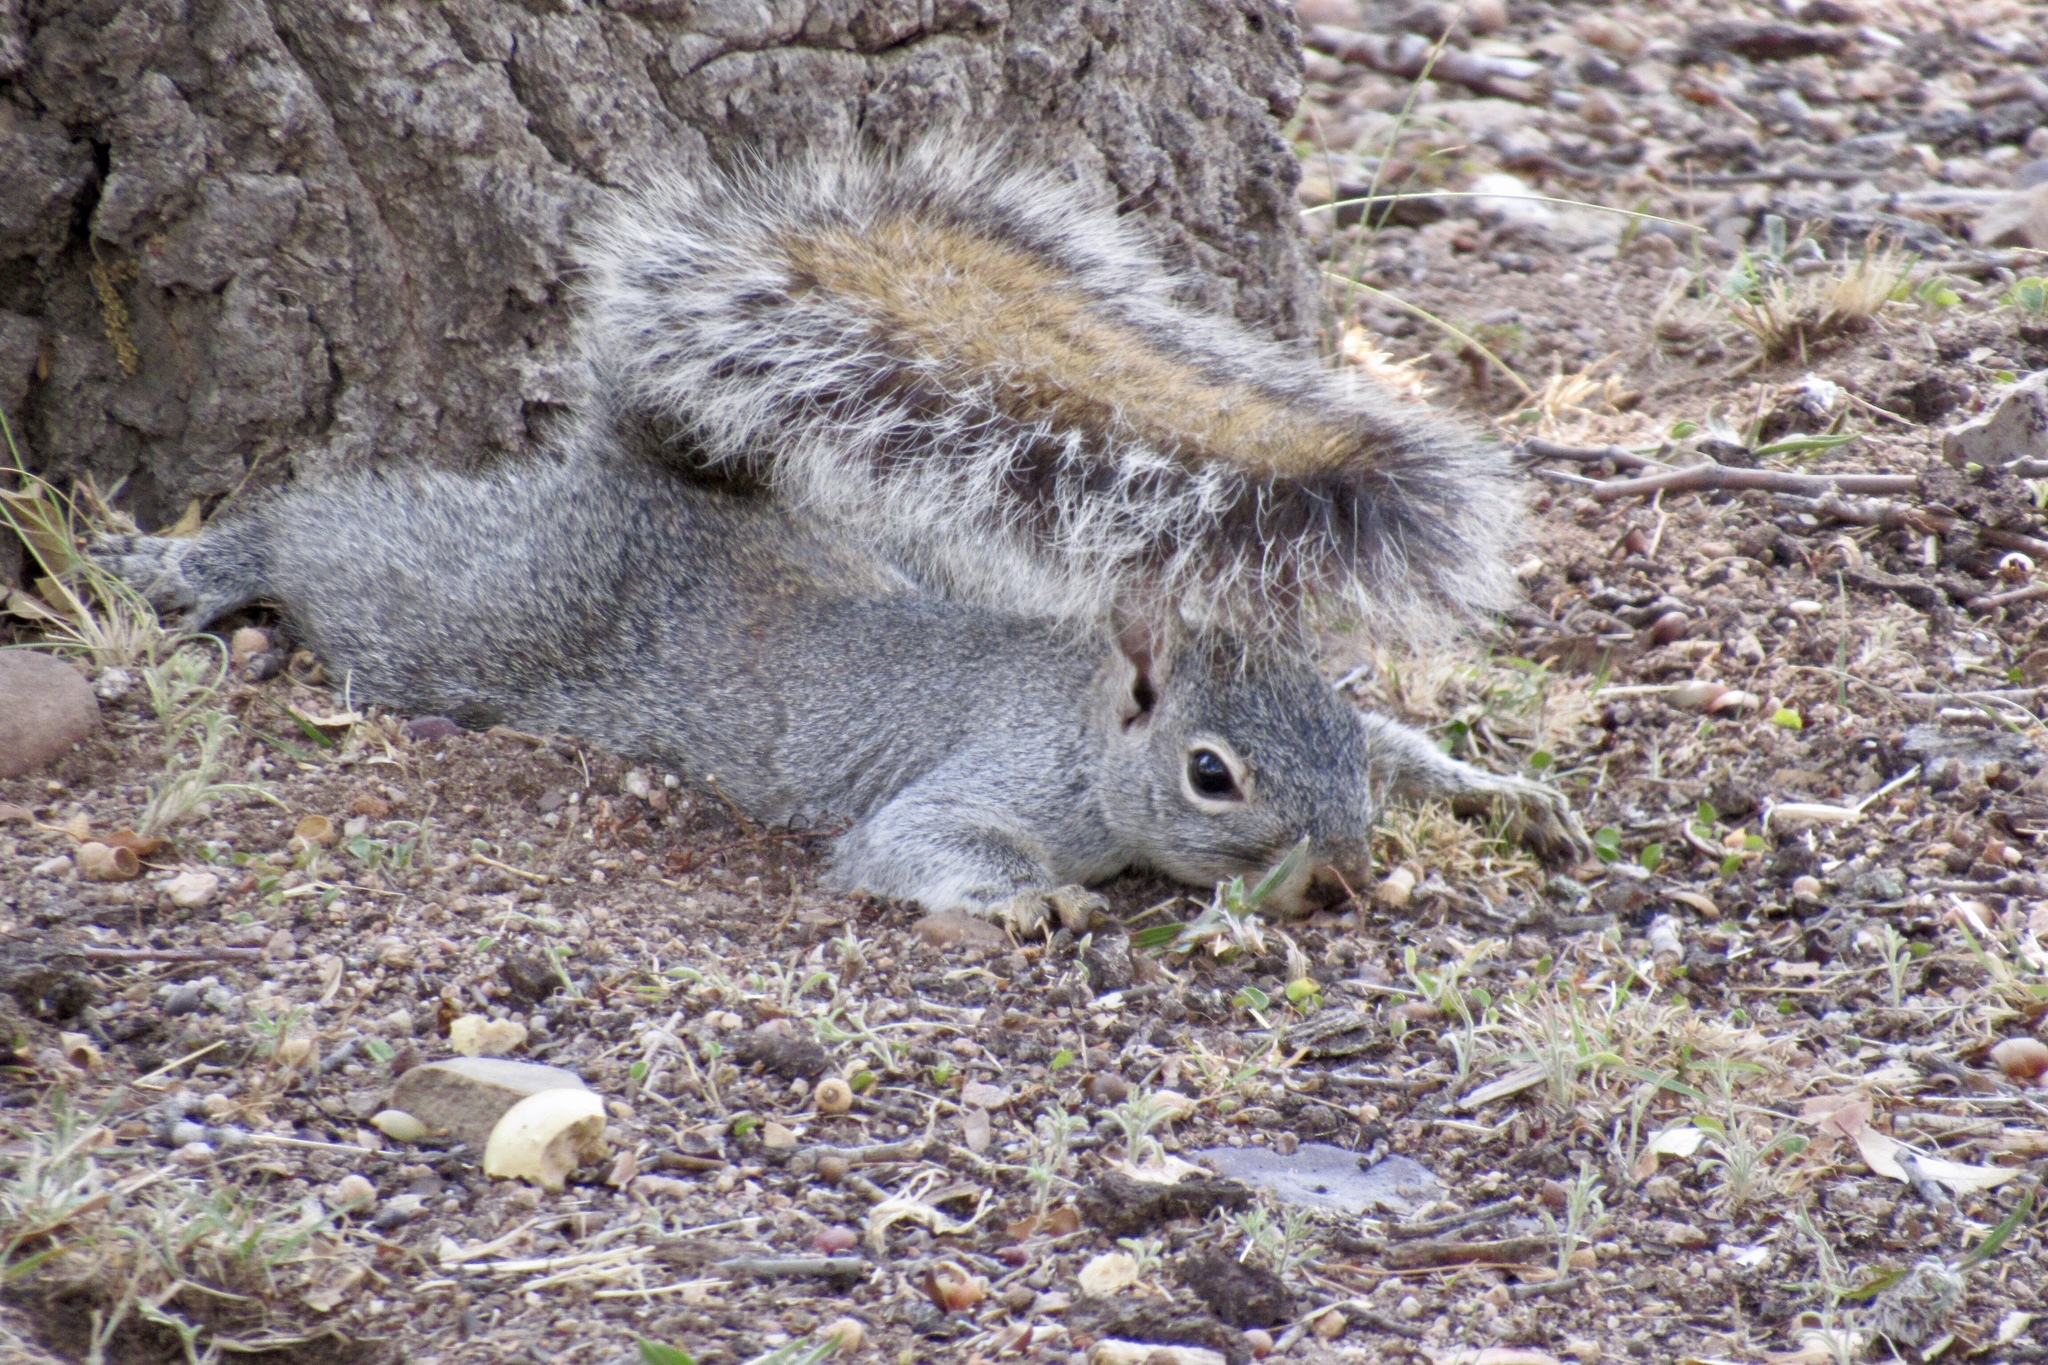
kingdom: Animalia
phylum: Chordata
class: Mammalia
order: Rodentia
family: Sciuridae
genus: Sciurus
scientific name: Sciurus arizonensis
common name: Arizona gray squirrel
